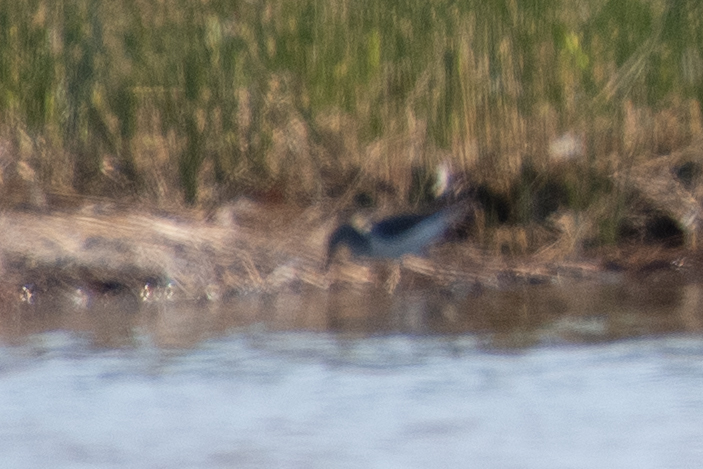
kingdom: Animalia
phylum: Chordata
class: Aves
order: Charadriiformes
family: Scolopacidae
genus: Actitis
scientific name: Actitis hypoleucos
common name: Common sandpiper
